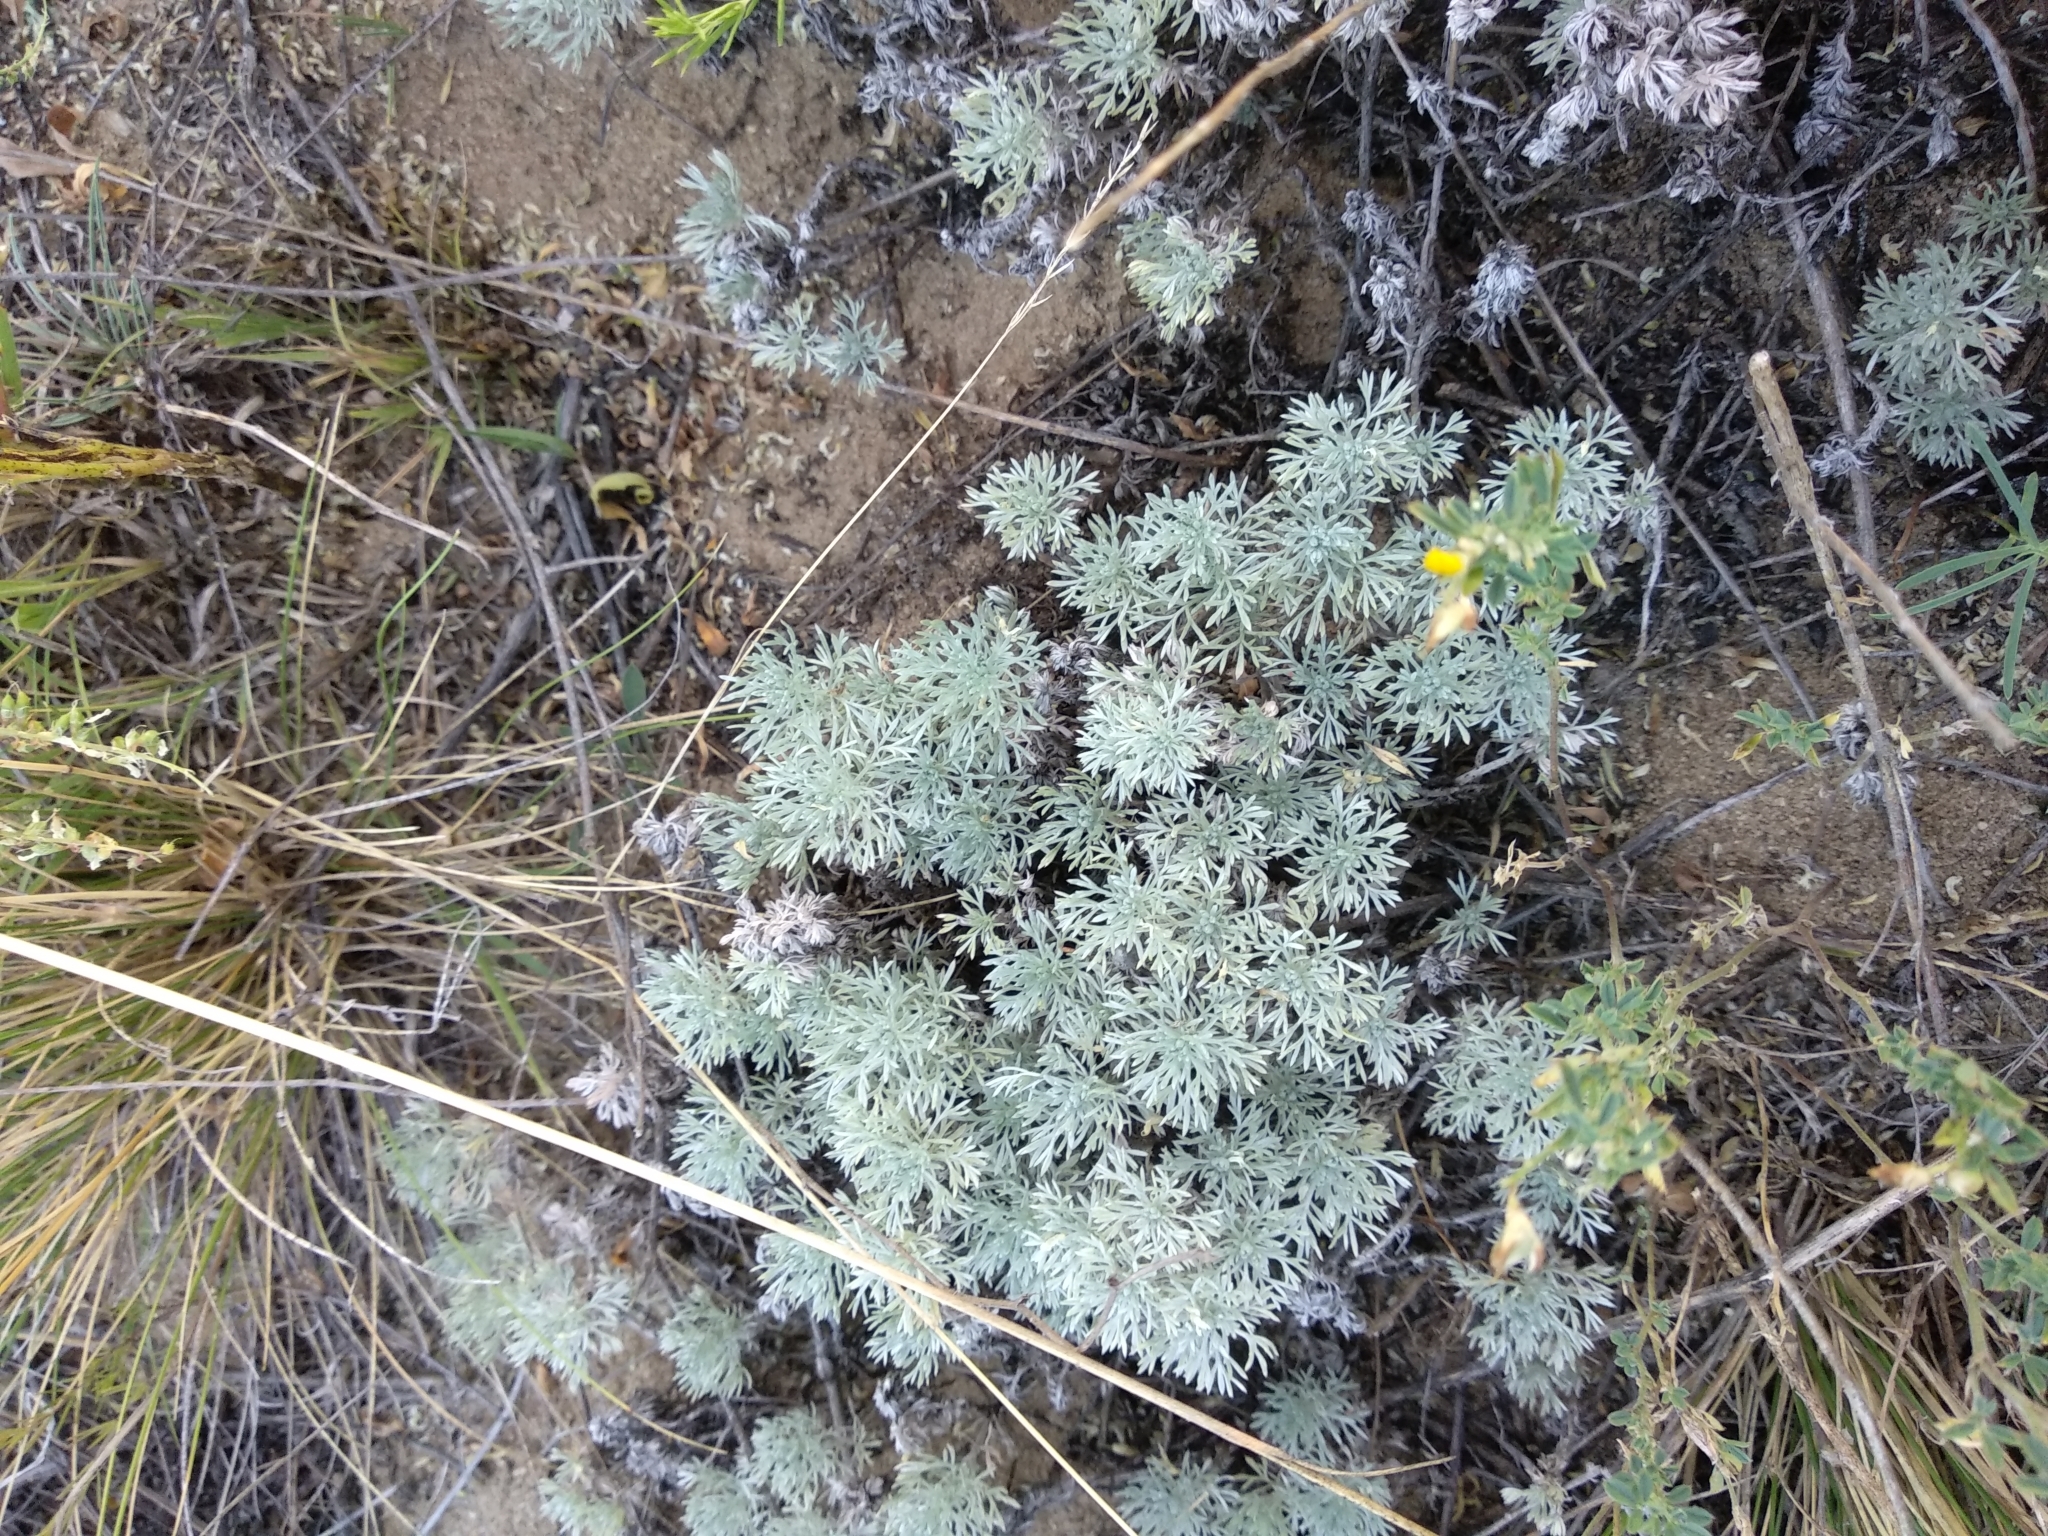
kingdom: Plantae
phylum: Tracheophyta
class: Magnoliopsida
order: Asterales
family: Asteraceae
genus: Artemisia
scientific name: Artemisia austriaca
